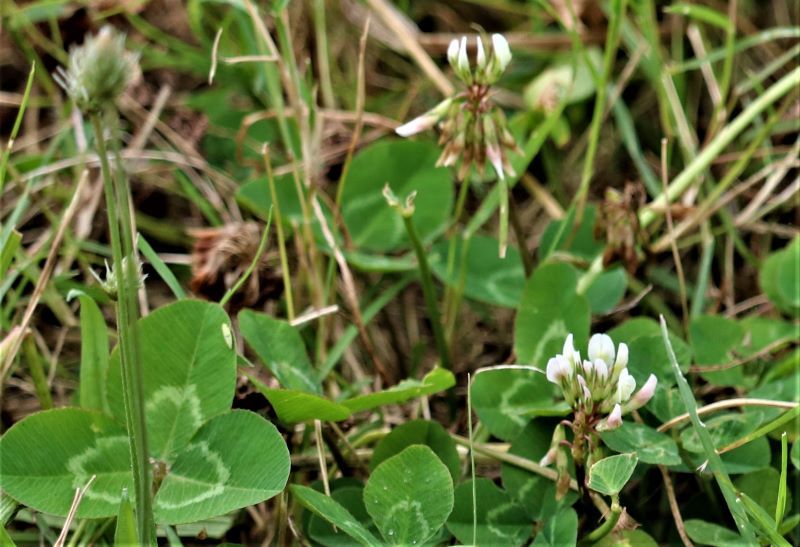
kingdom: Plantae
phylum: Tracheophyta
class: Magnoliopsida
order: Fabales
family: Fabaceae
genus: Trifolium
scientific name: Trifolium repens
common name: White clover
